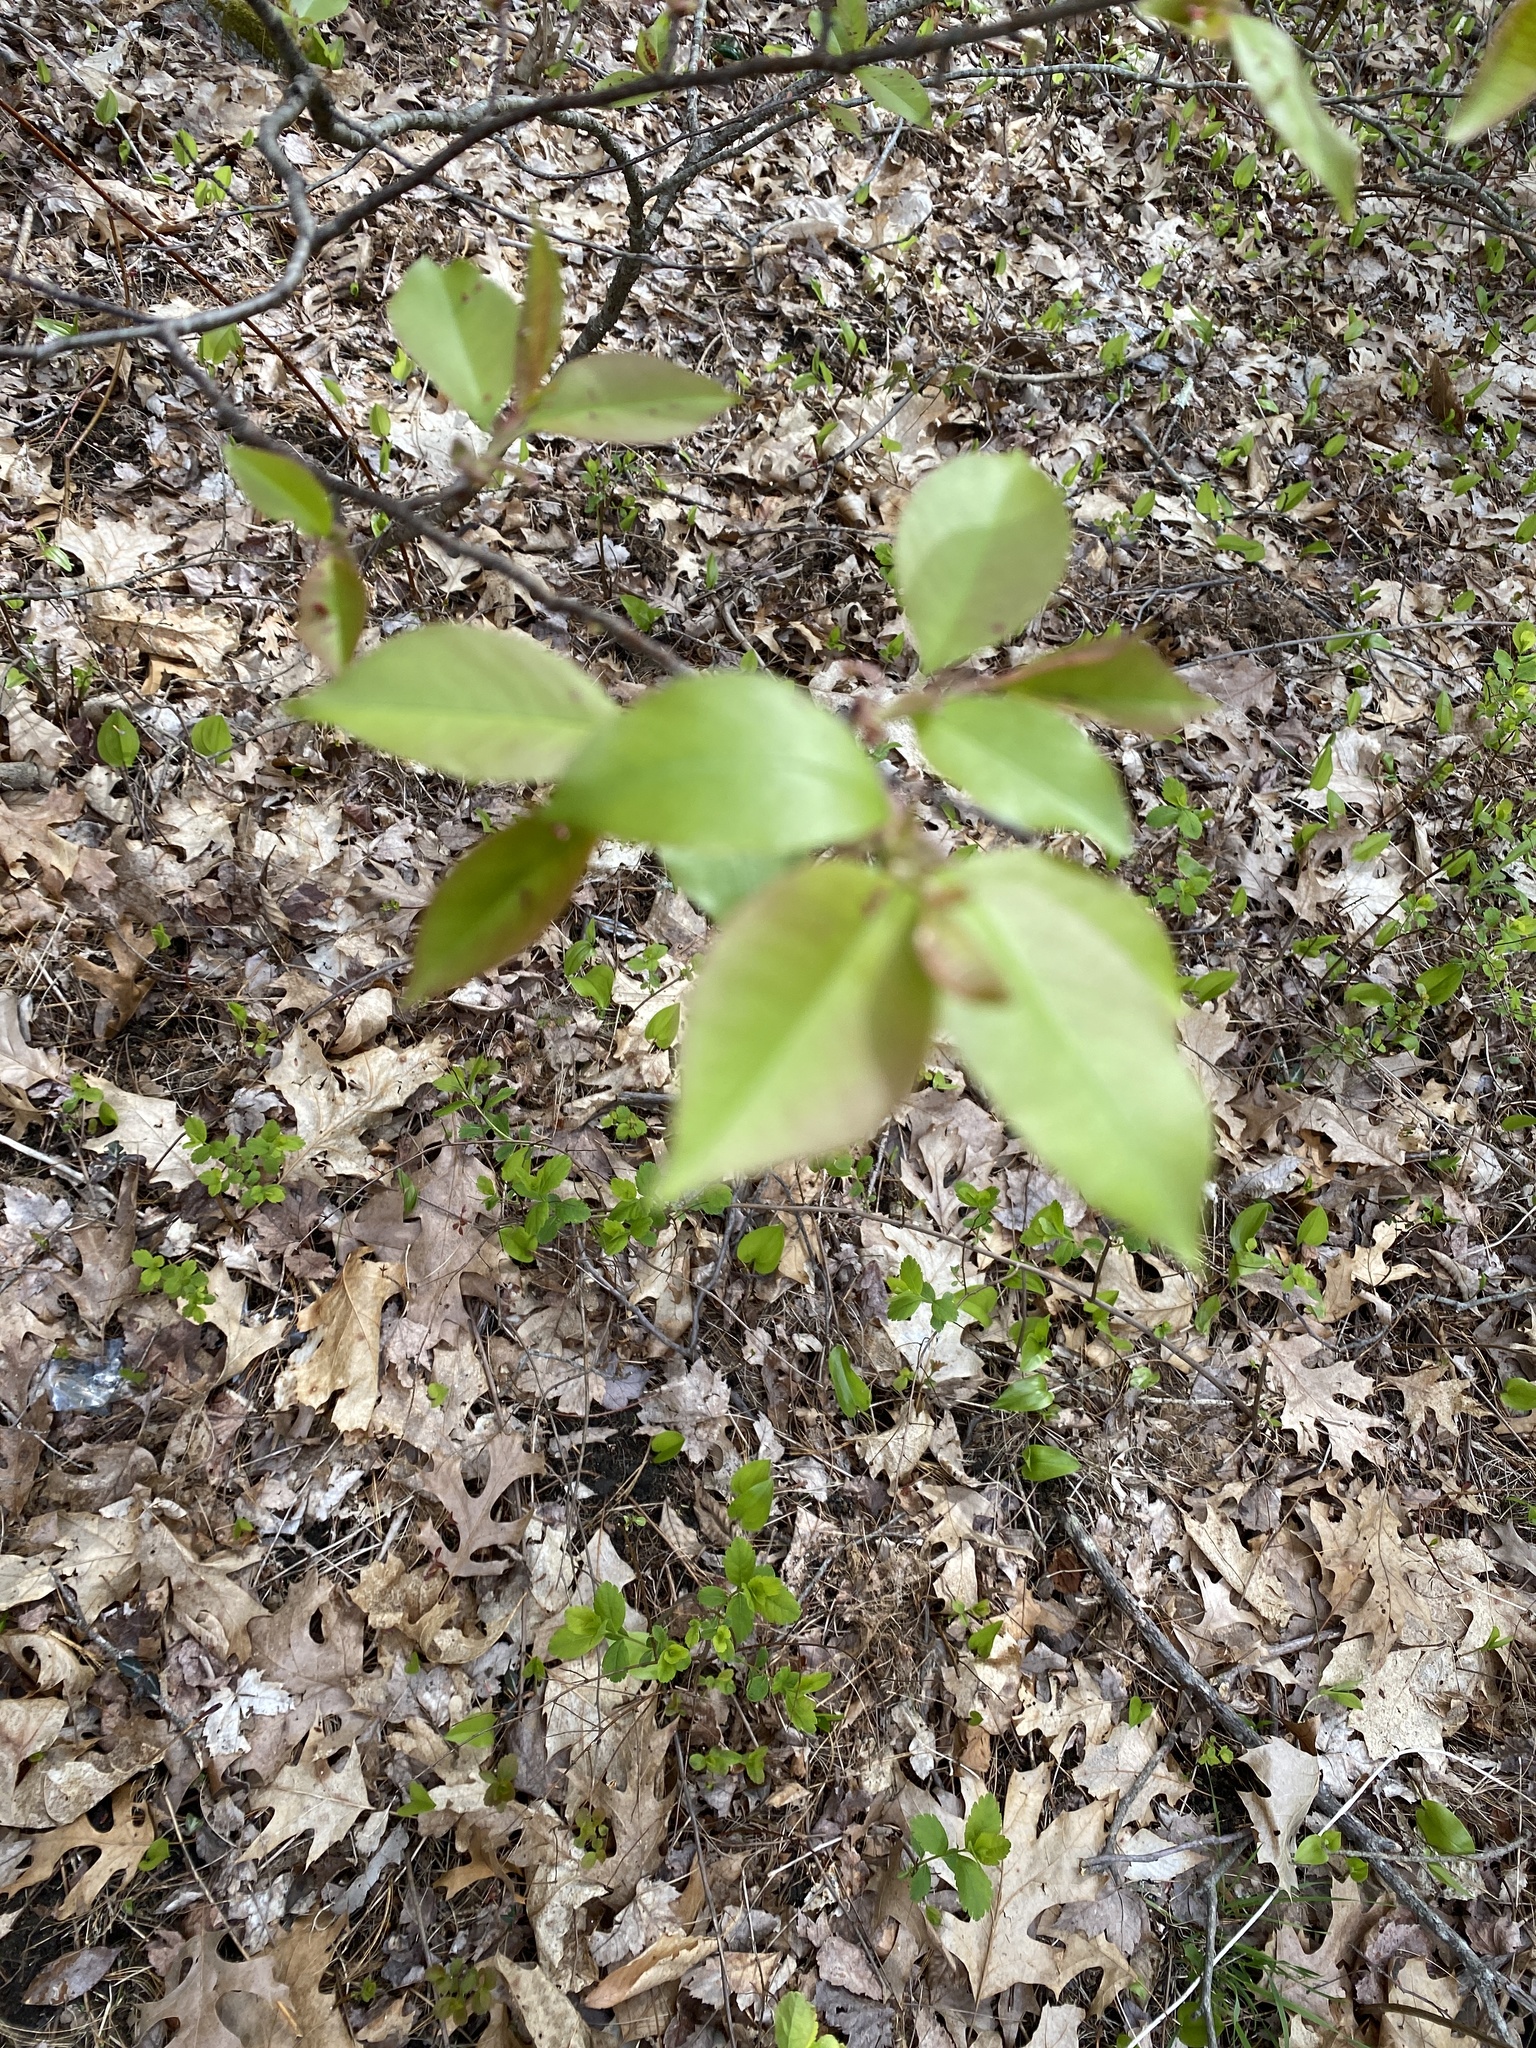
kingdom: Plantae
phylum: Tracheophyta
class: Magnoliopsida
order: Rosales
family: Rosaceae
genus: Prunus
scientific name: Prunus serotina
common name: Black cherry
